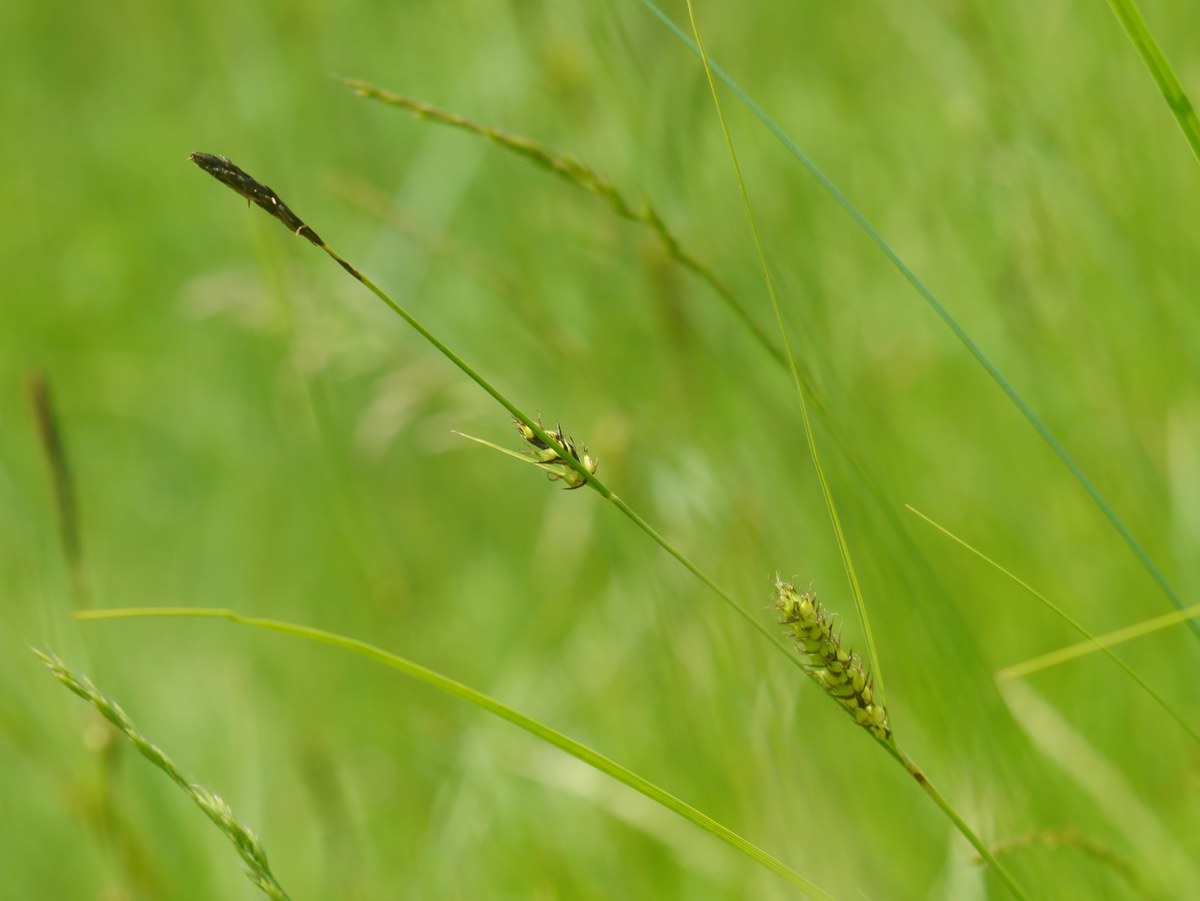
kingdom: Plantae
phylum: Tracheophyta
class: Liliopsida
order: Poales
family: Cyperaceae
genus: Carex
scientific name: Carex melanostachya
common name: Black-spiked sedge
